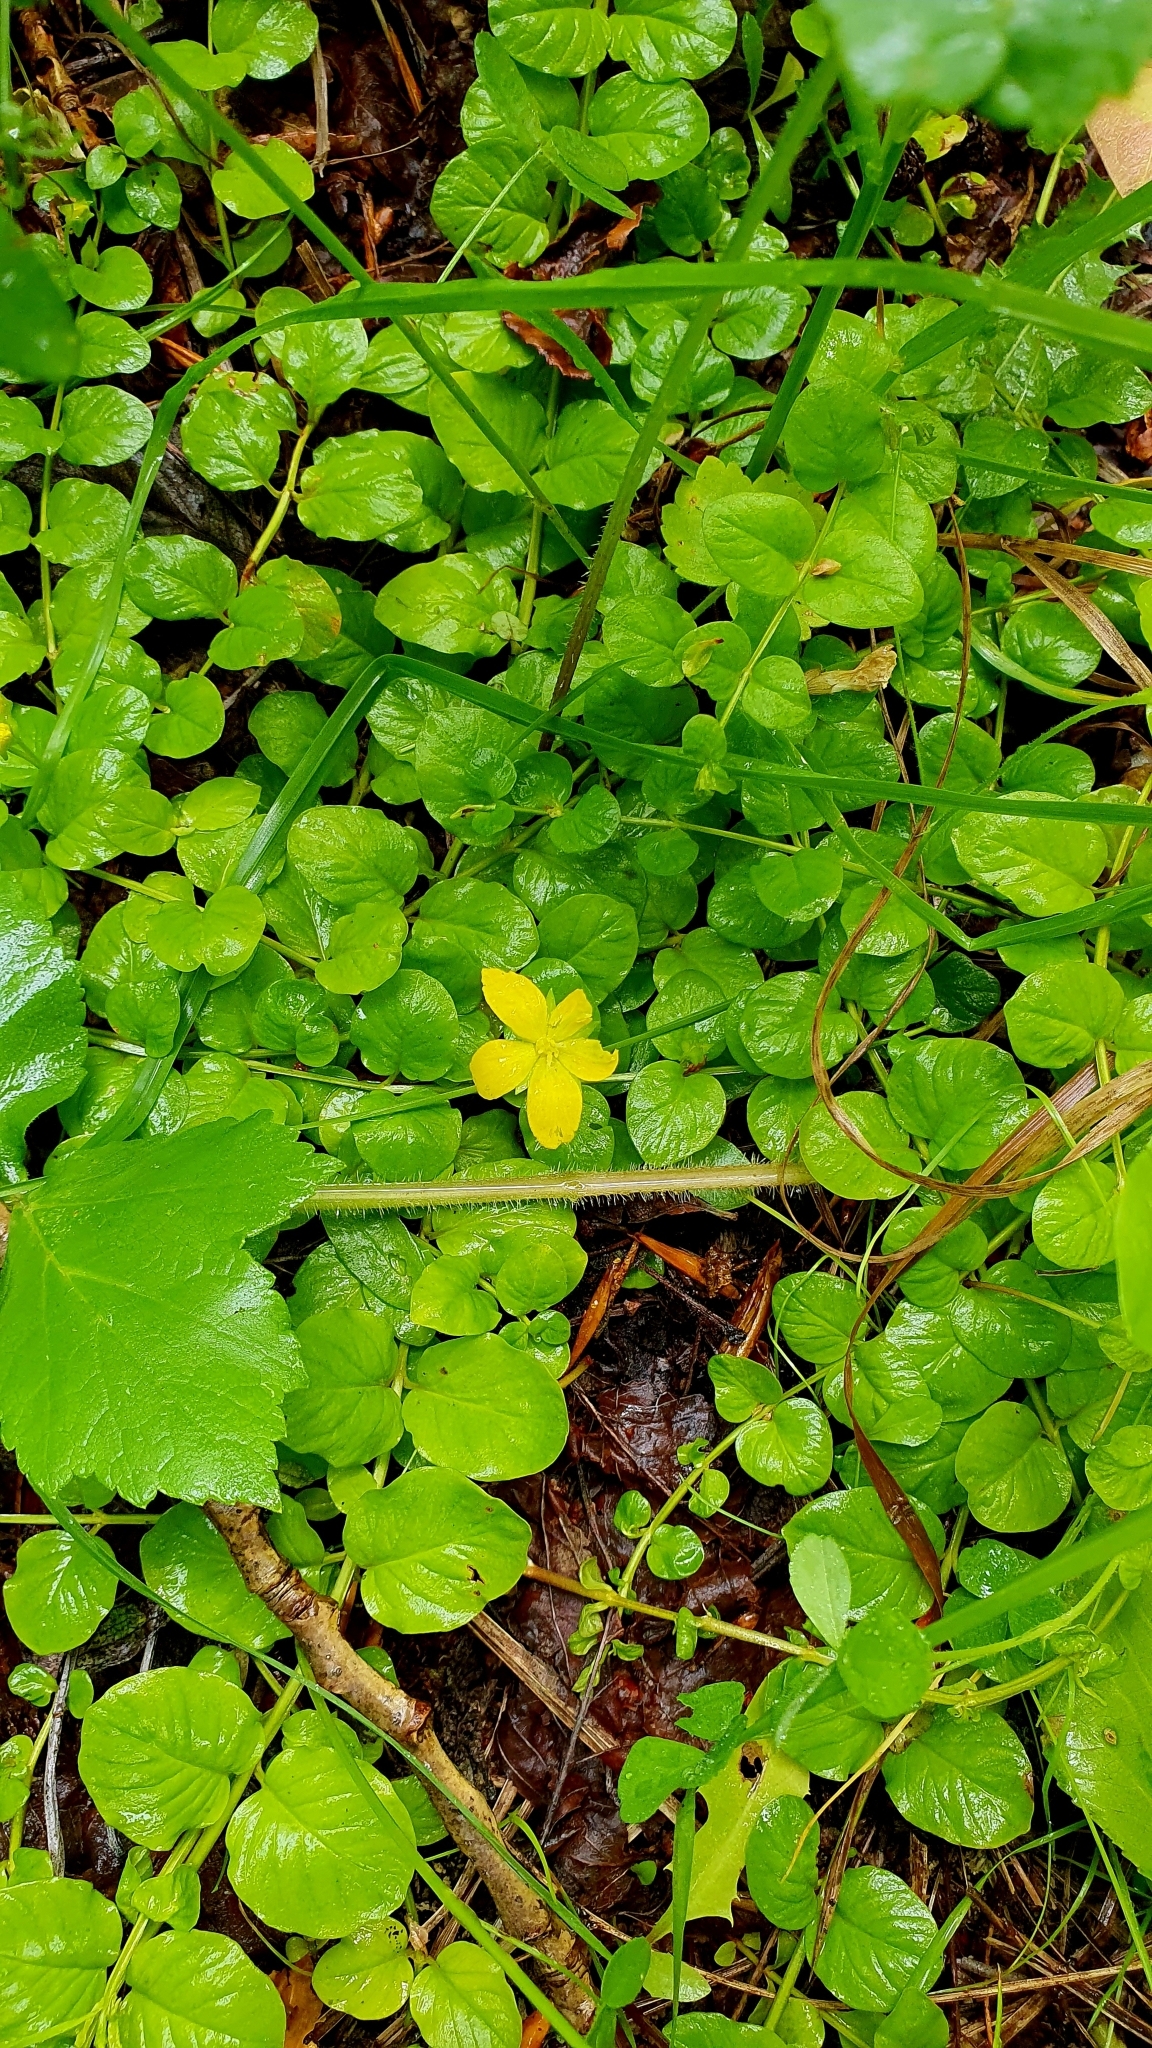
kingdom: Plantae
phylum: Tracheophyta
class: Magnoliopsida
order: Ericales
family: Primulaceae
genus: Lysimachia
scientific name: Lysimachia nummularia
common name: Moneywort
